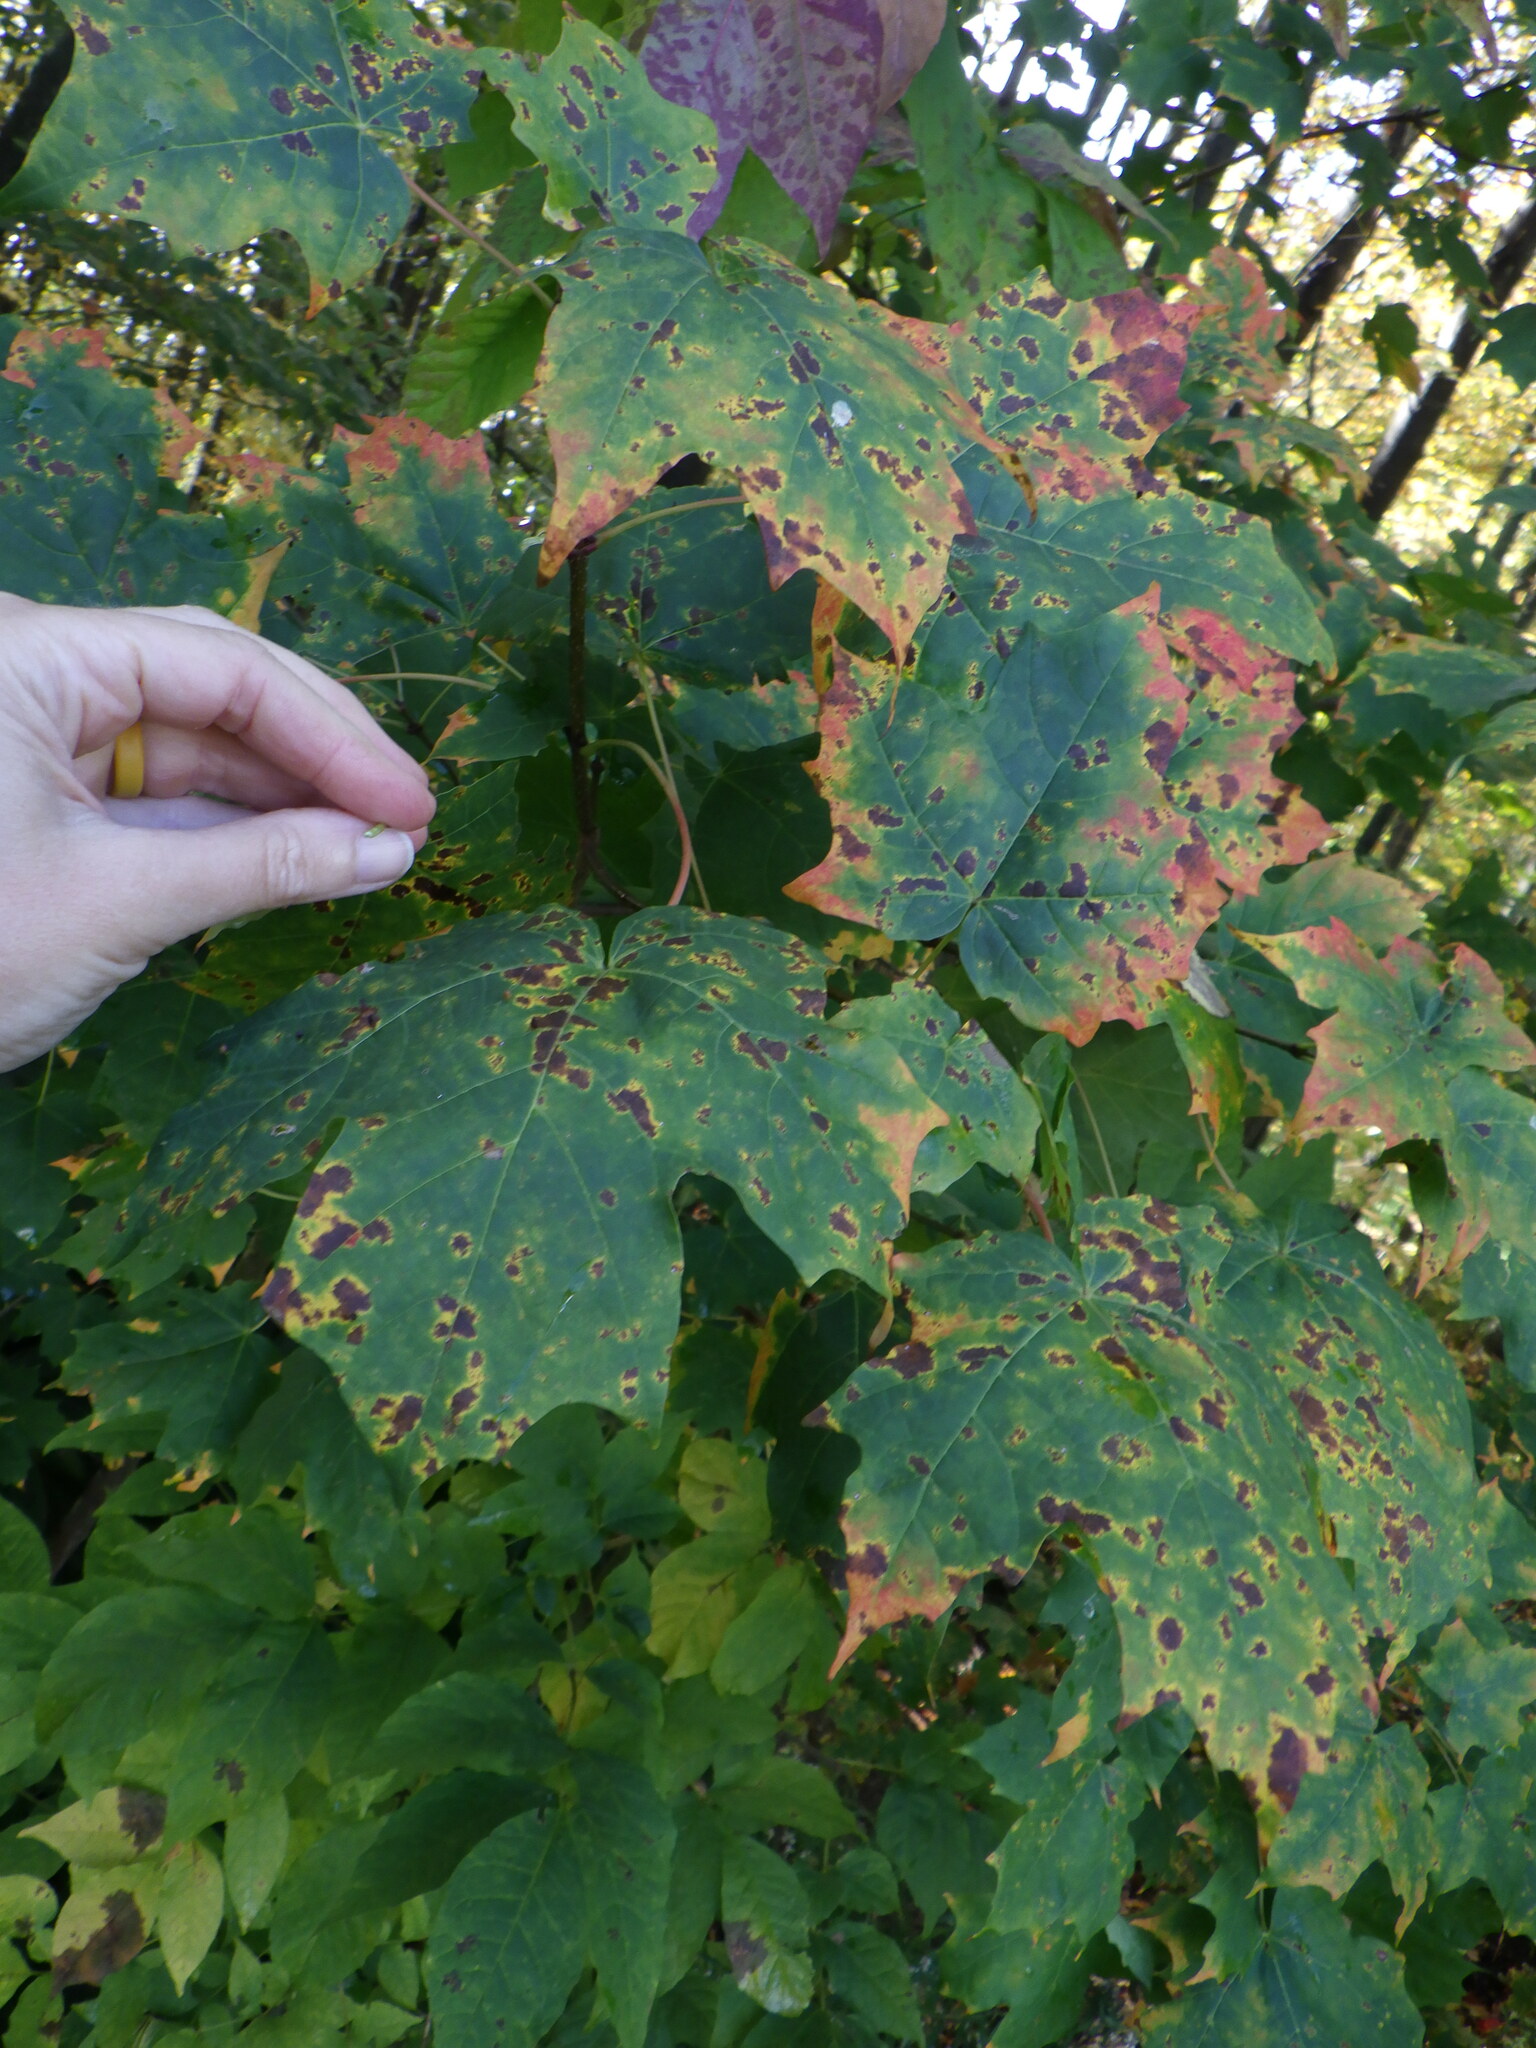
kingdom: Plantae
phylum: Tracheophyta
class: Magnoliopsida
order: Sapindales
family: Sapindaceae
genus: Acer
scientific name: Acer saccharum
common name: Sugar maple
